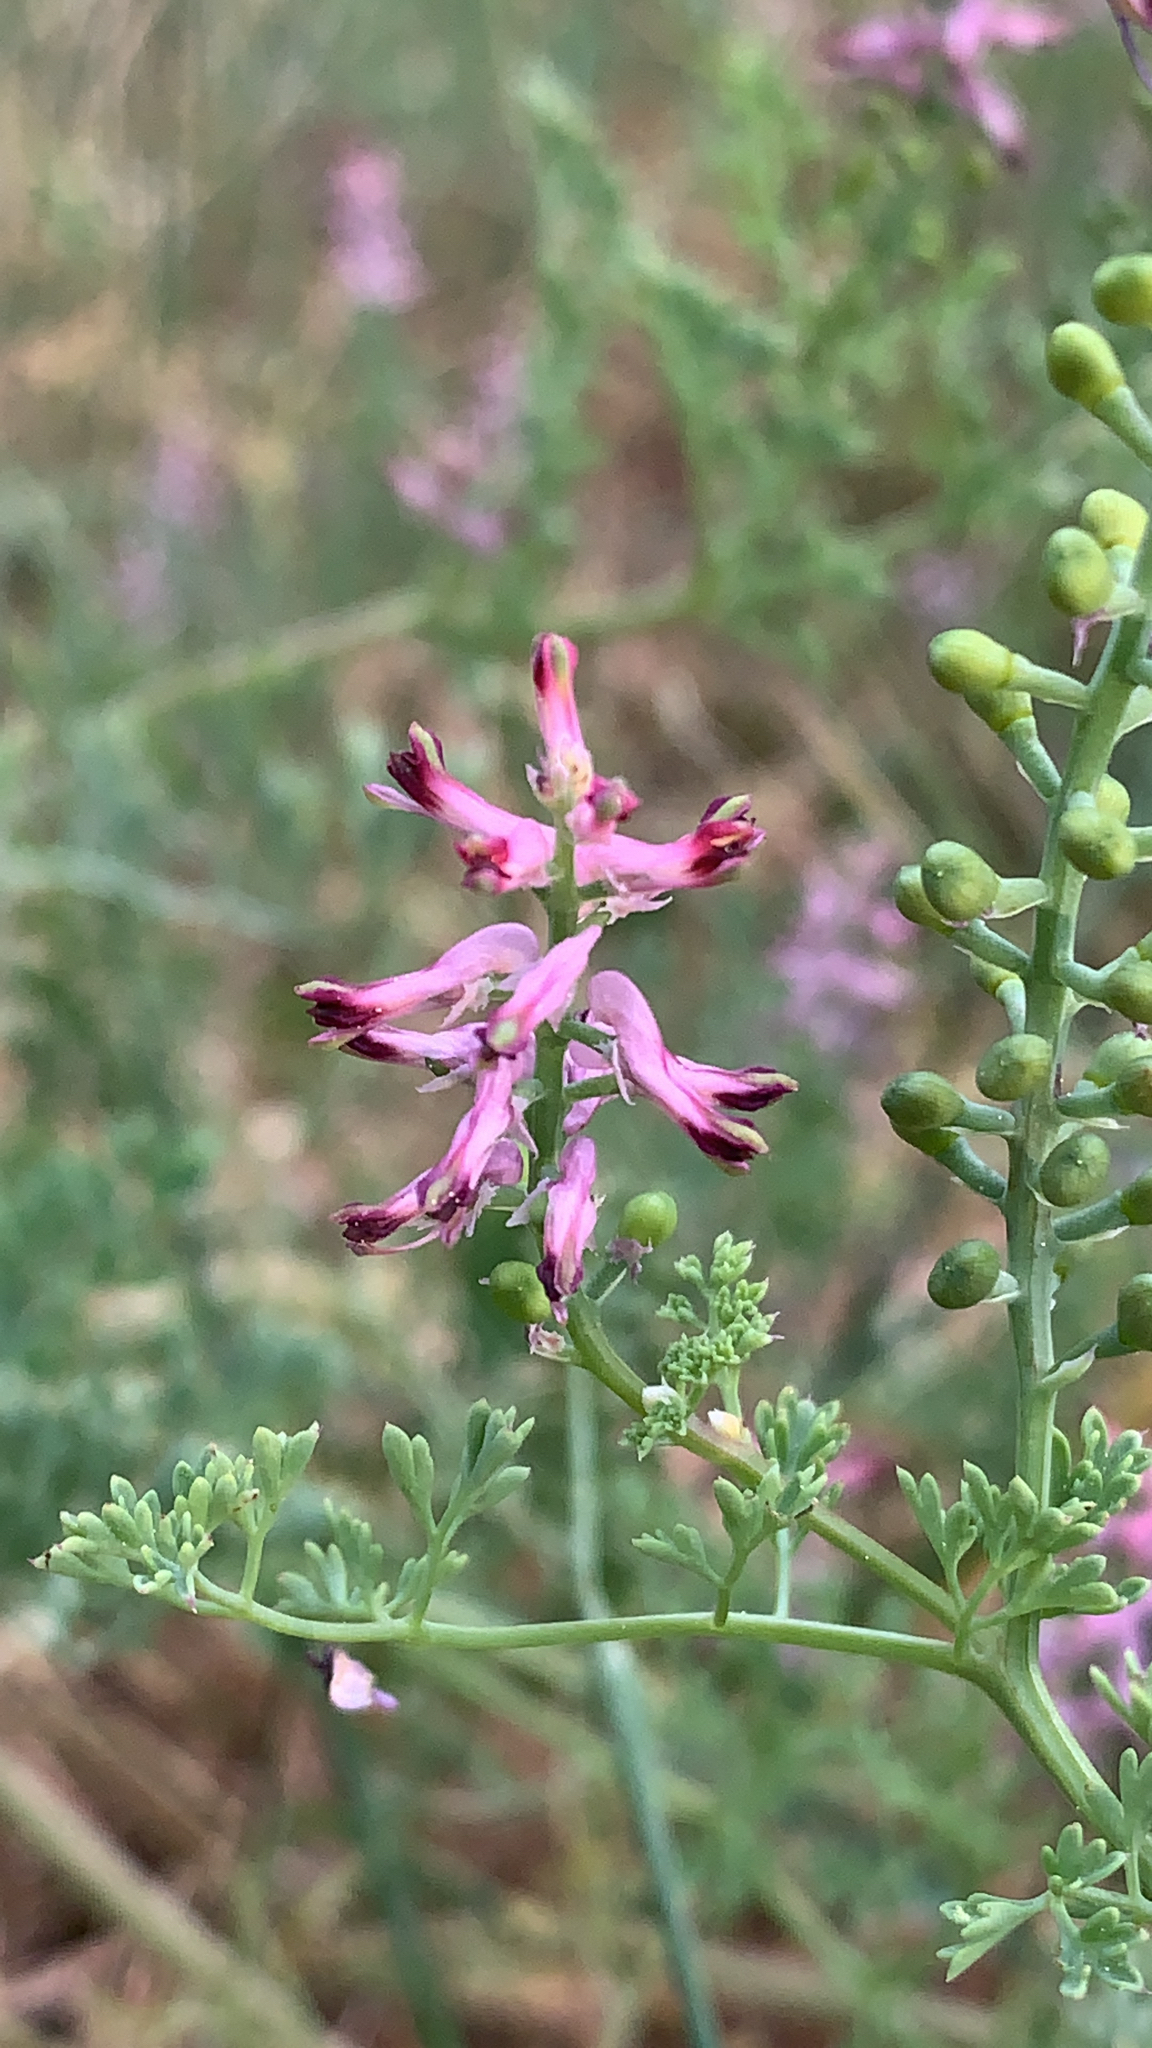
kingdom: Plantae
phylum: Tracheophyta
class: Magnoliopsida
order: Ranunculales
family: Papaveraceae
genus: Fumaria
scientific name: Fumaria officinalis
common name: Common fumitory
